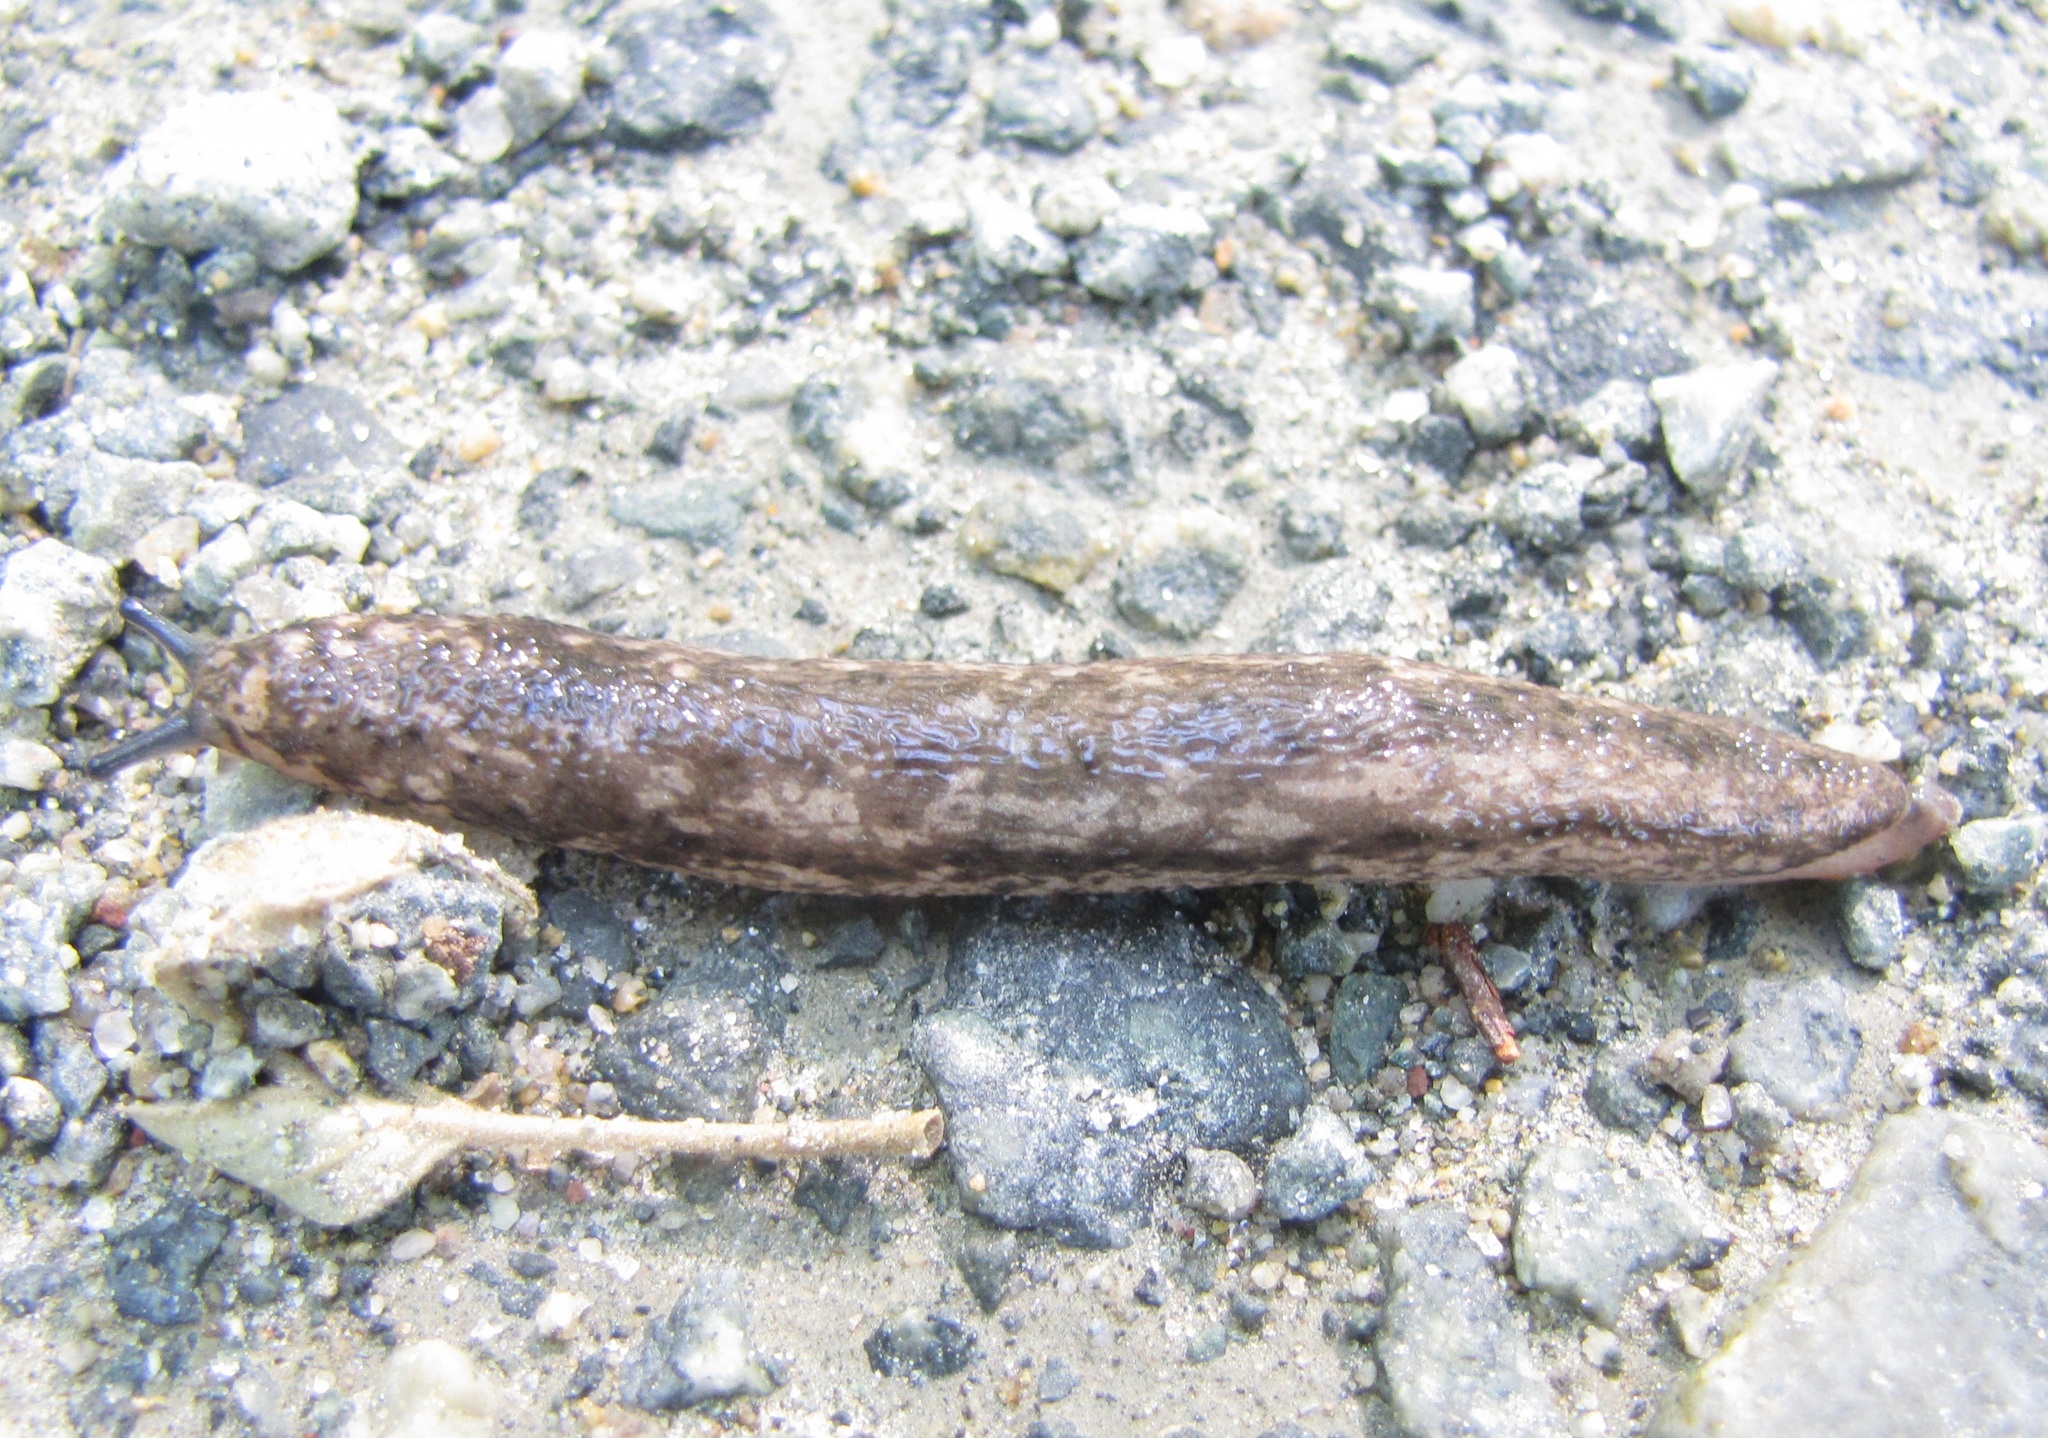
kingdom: Animalia
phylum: Mollusca
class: Gastropoda
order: Stylommatophora
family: Philomycidae
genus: Philomycus
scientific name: Philomycus togatus
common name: Toga mantleslug
